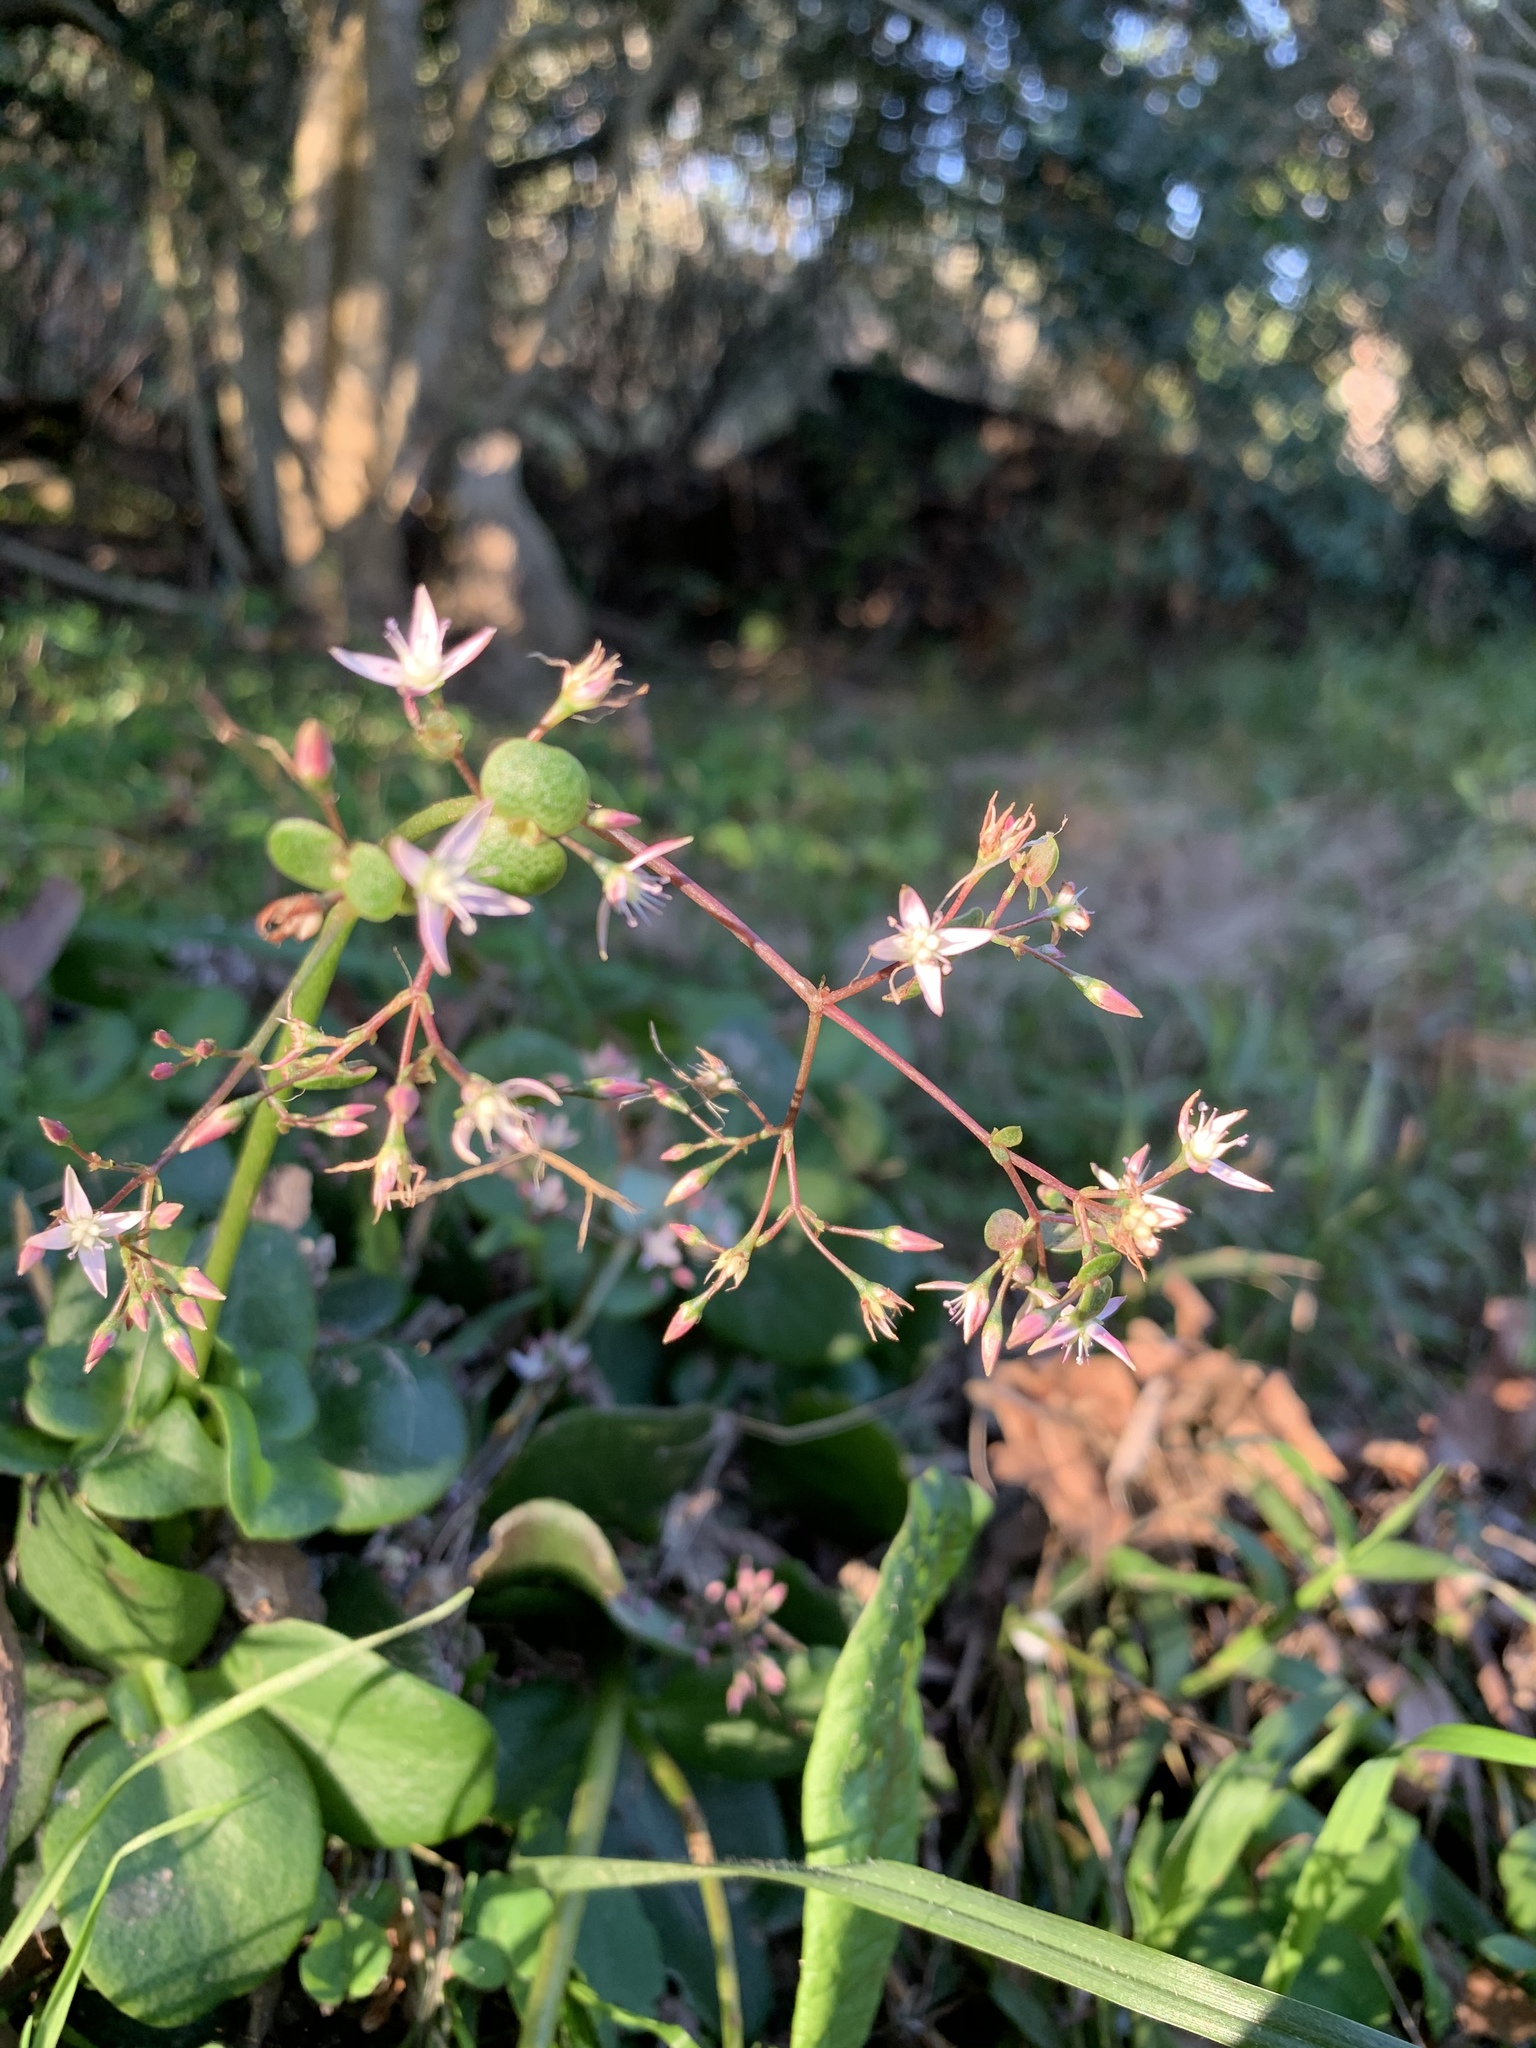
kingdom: Plantae
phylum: Tracheophyta
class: Magnoliopsida
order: Saxifragales
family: Crassulaceae
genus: Crassula
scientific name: Crassula multicava
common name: Cape province pygmyweed
